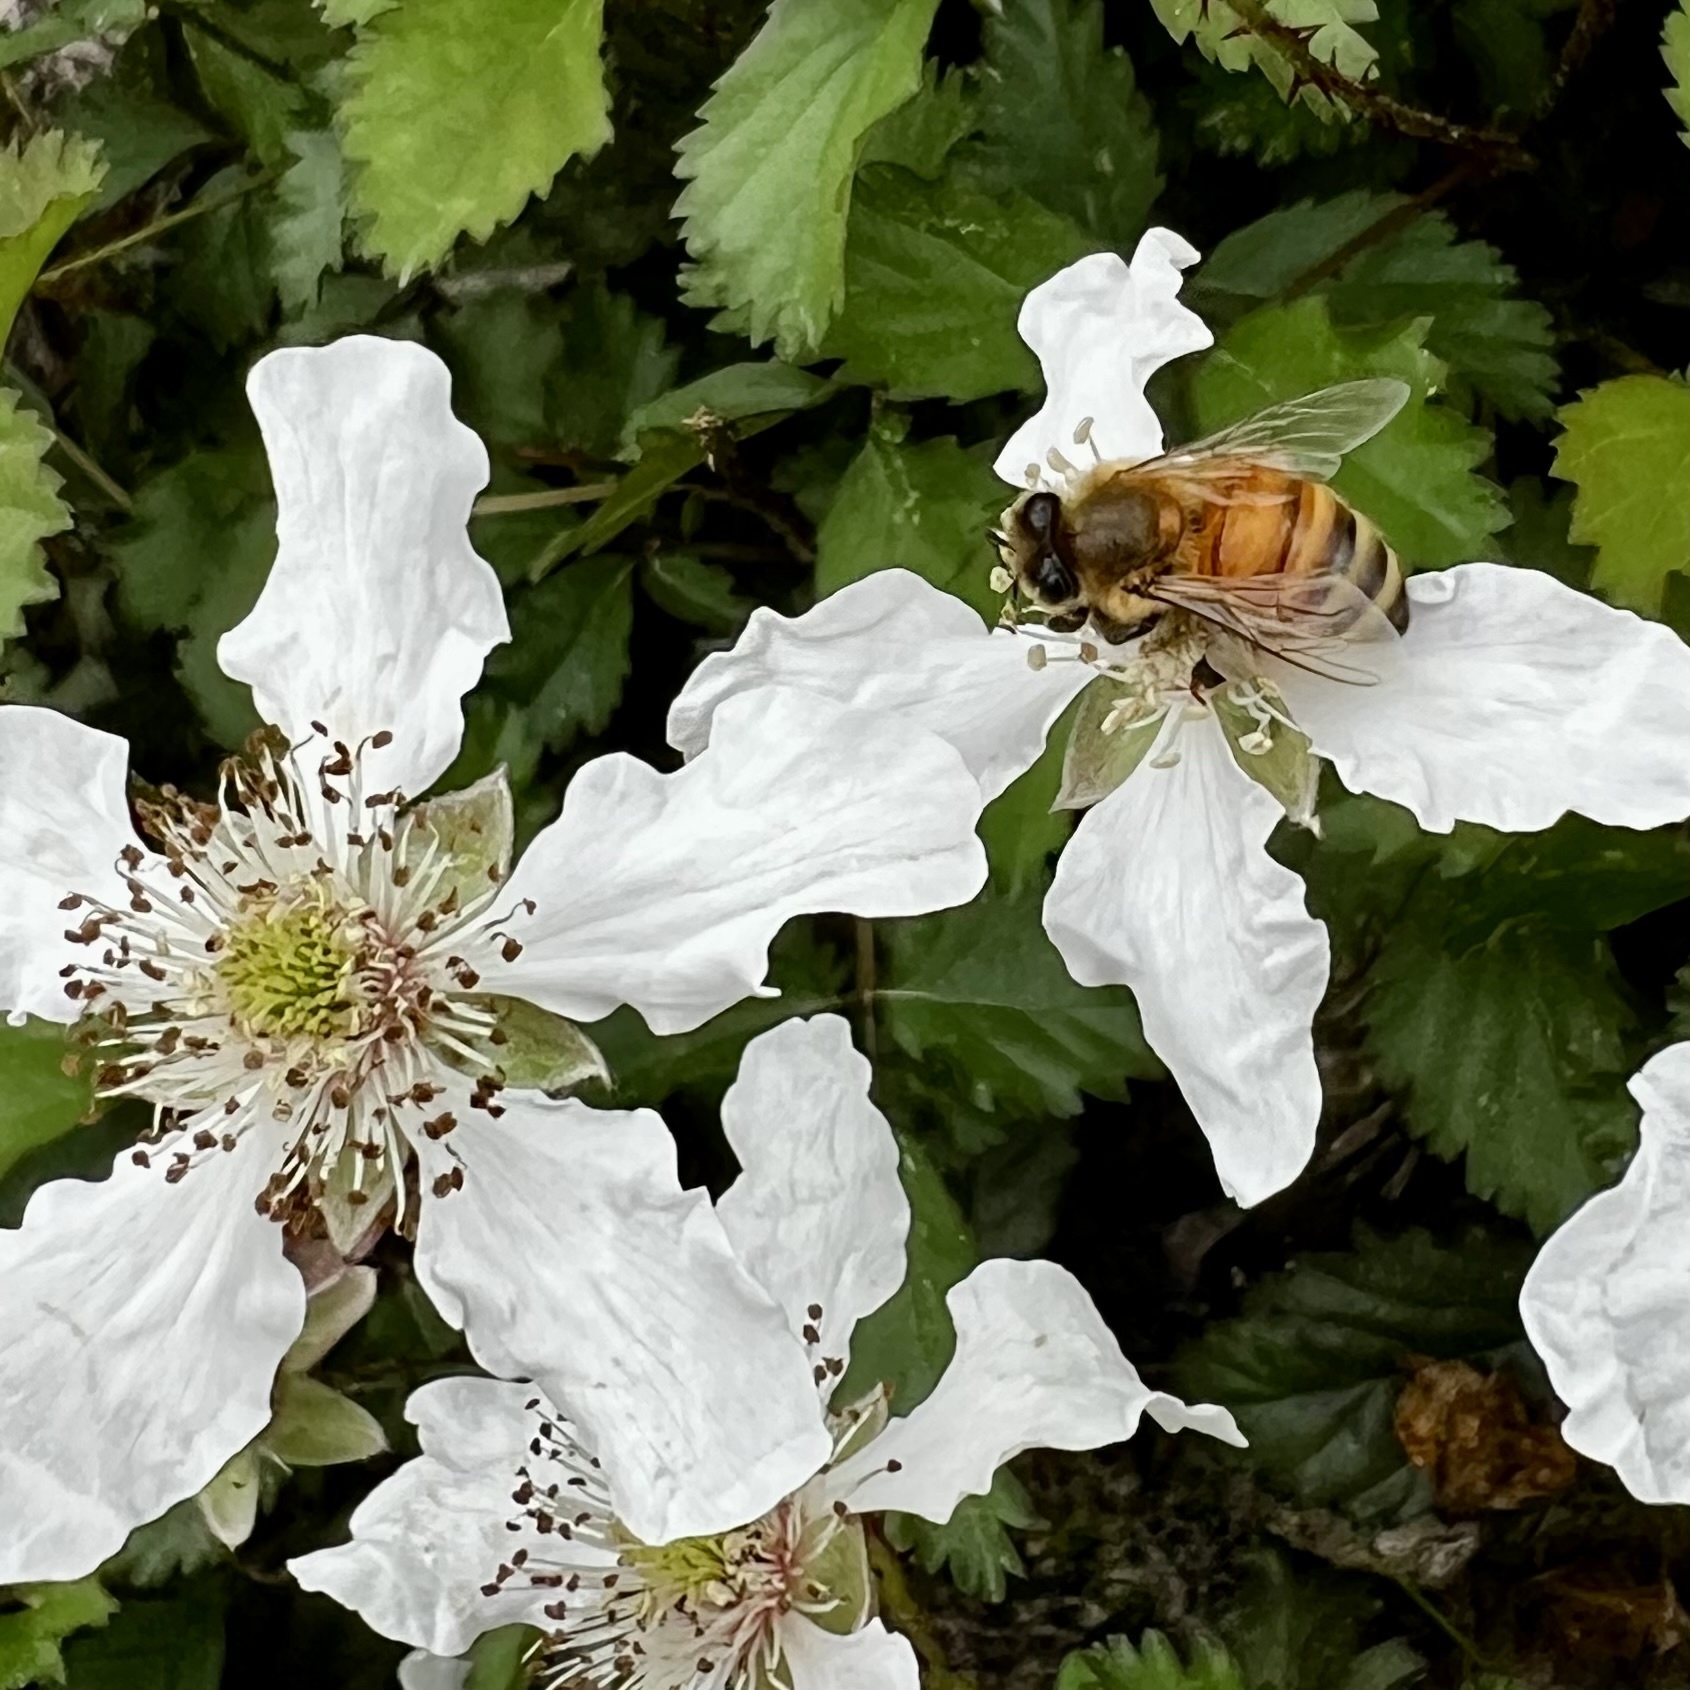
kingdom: Animalia
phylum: Arthropoda
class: Insecta
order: Hymenoptera
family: Apidae
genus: Apis
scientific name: Apis mellifera
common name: Honey bee
